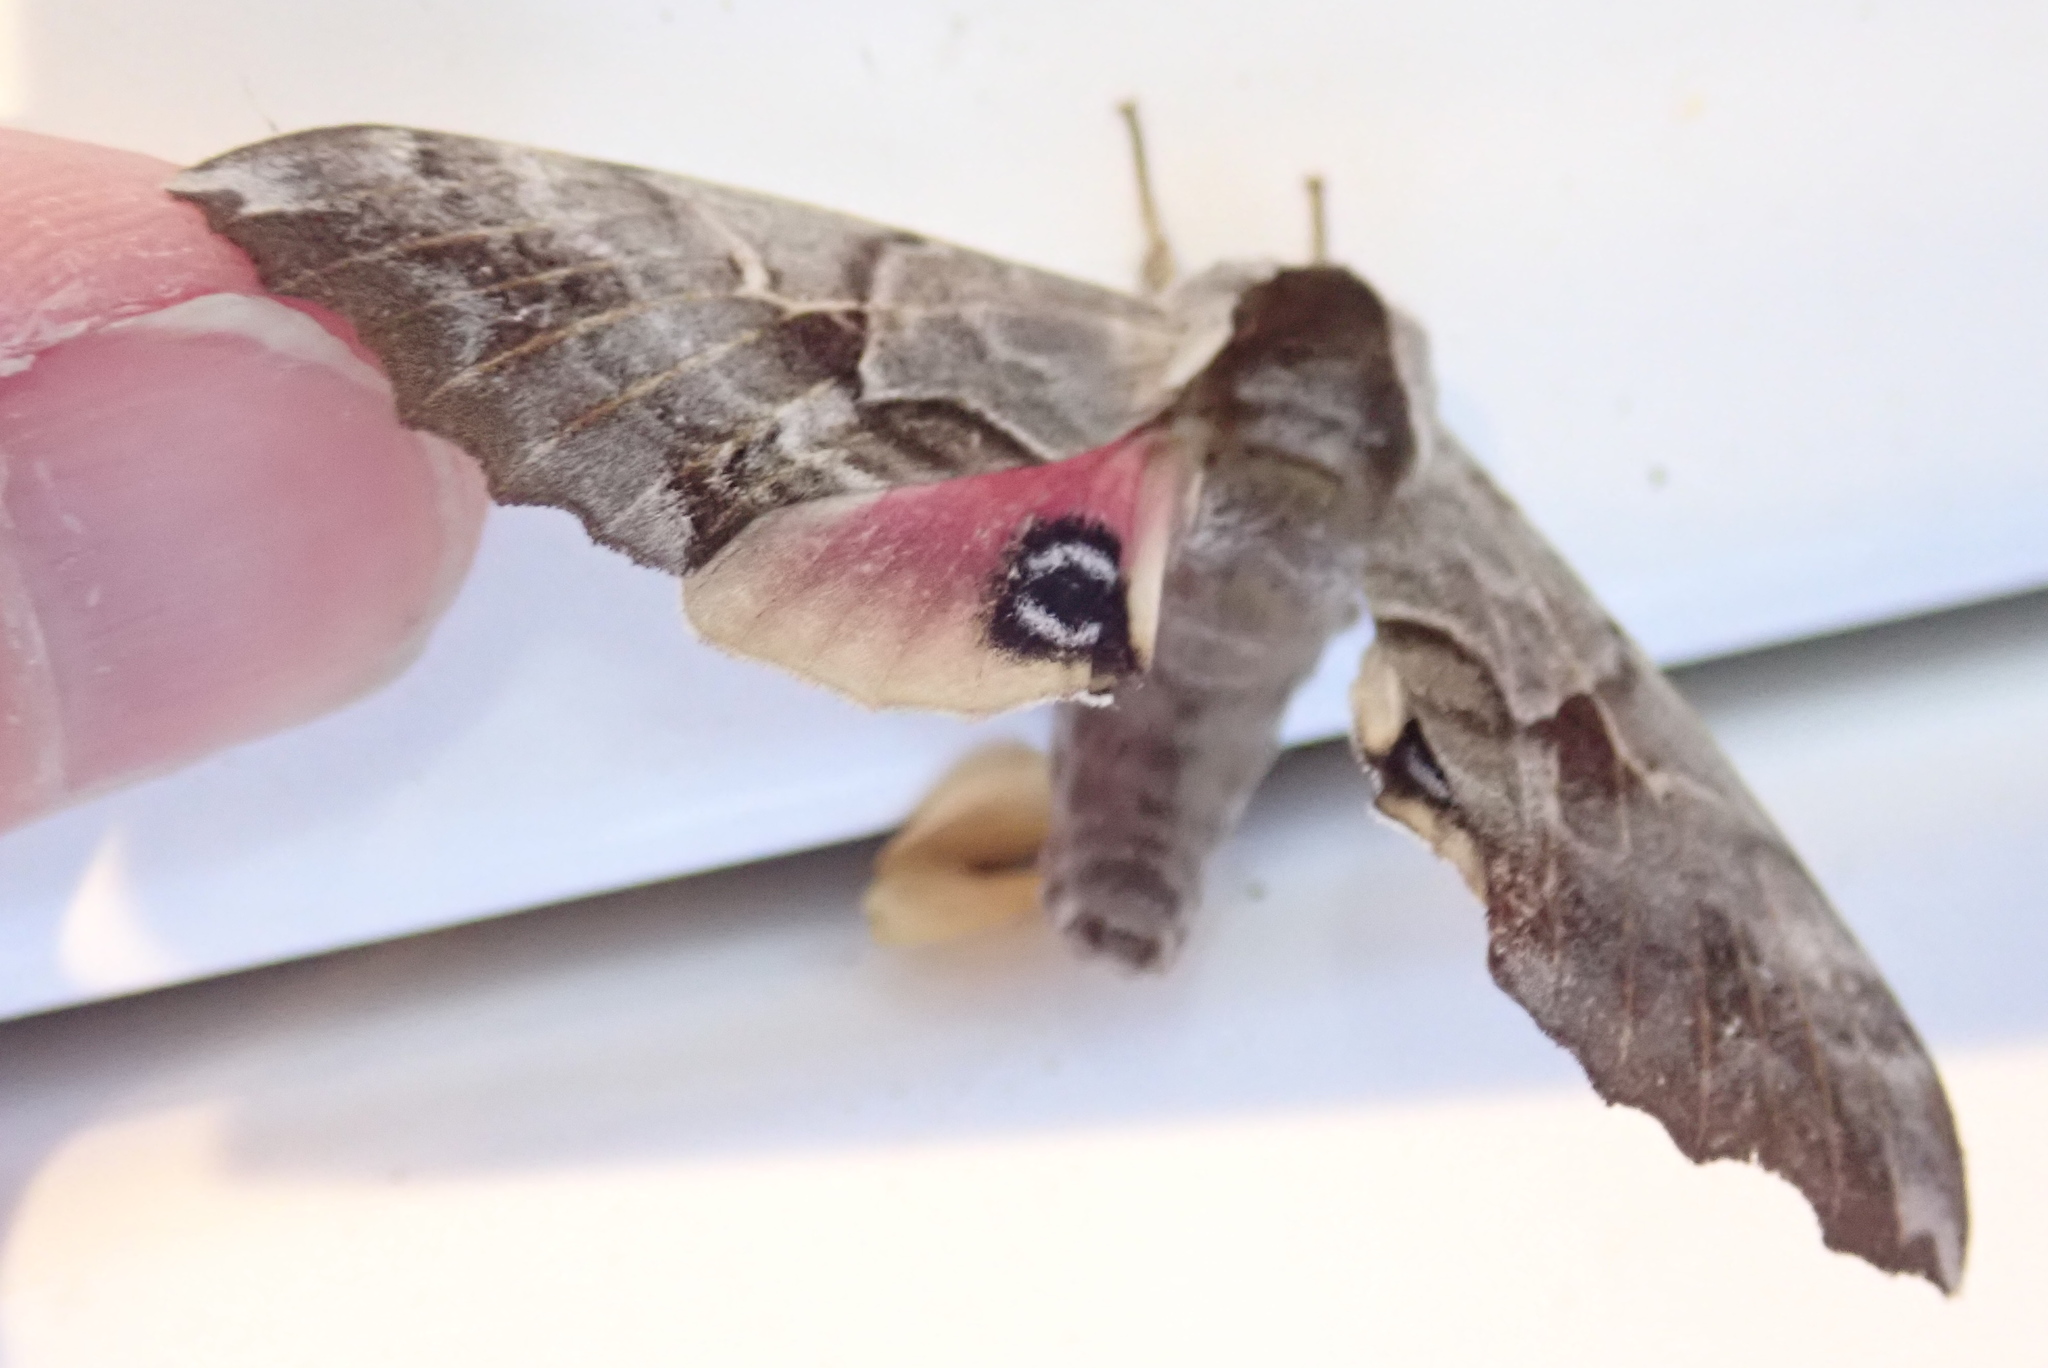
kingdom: Animalia
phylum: Arthropoda
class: Insecta
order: Lepidoptera
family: Sphingidae
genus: Smerinthus
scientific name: Smerinthus cerisyi
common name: Cerisy's sphinx moth
